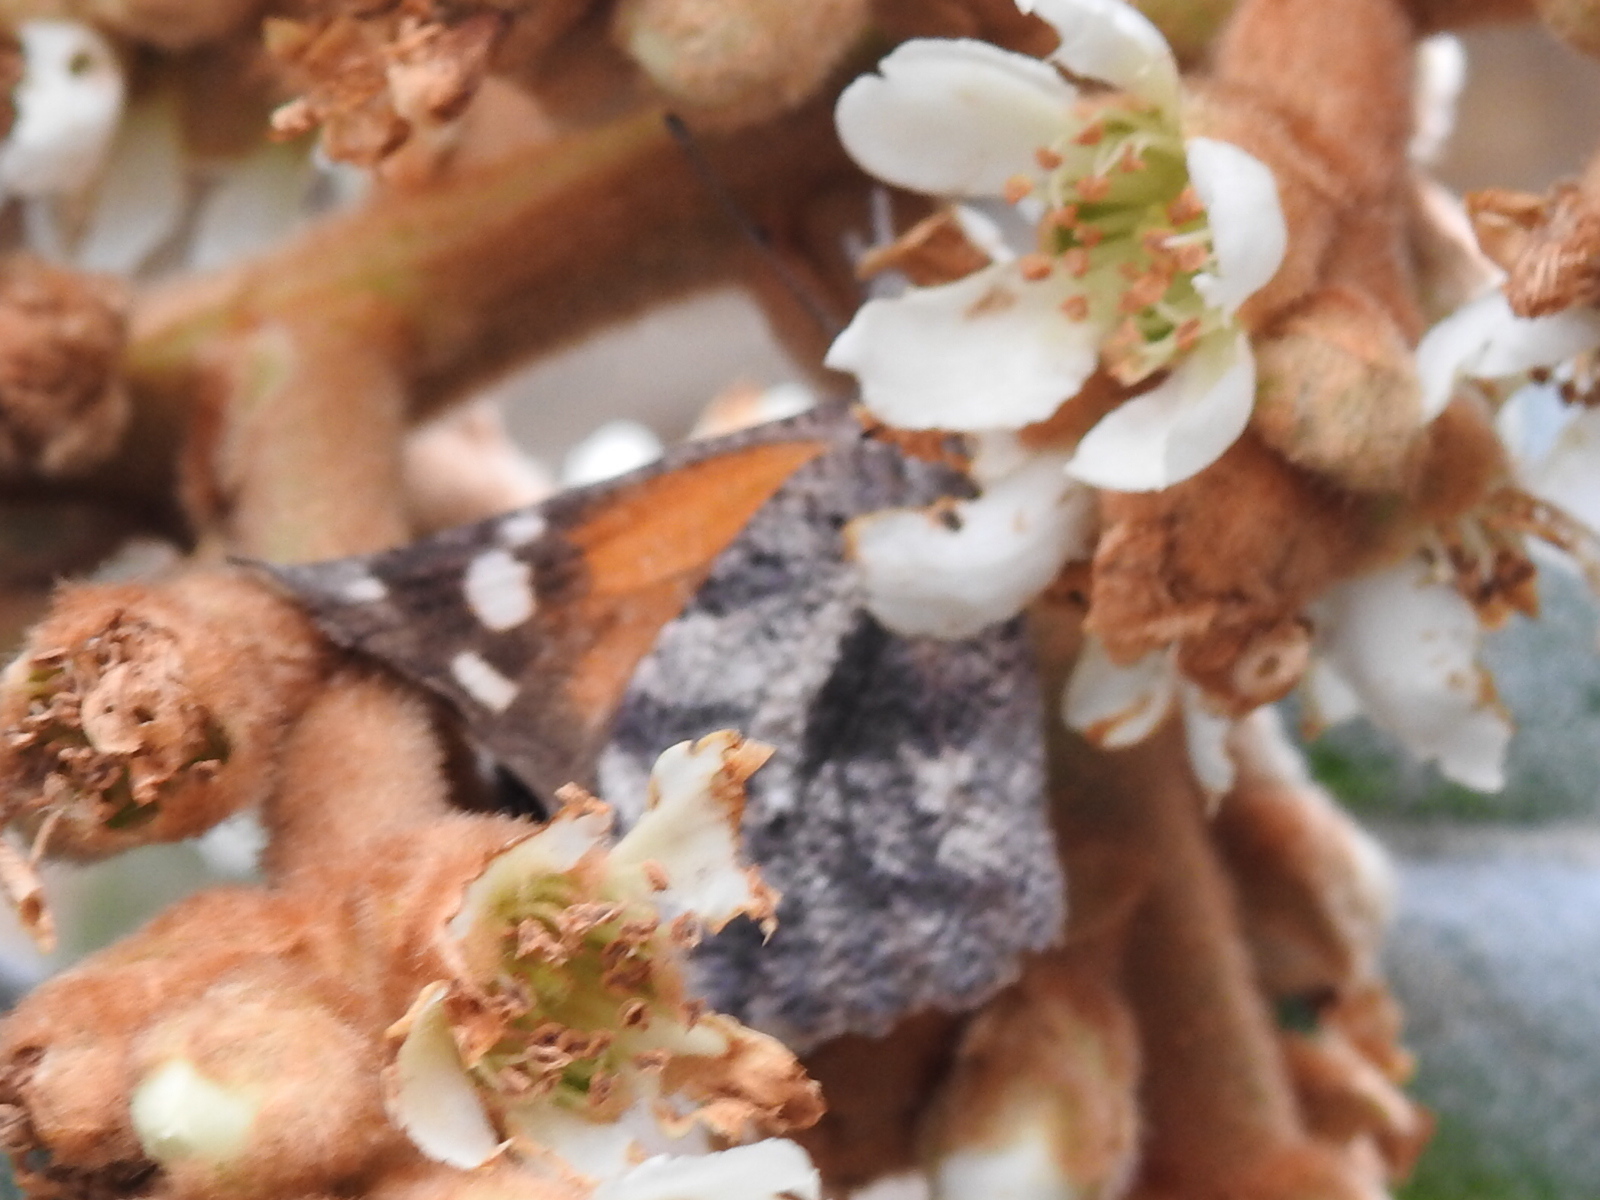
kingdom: Animalia
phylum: Arthropoda
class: Insecta
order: Lepidoptera
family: Nymphalidae
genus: Libytheana
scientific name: Libytheana carinenta
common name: American snout
